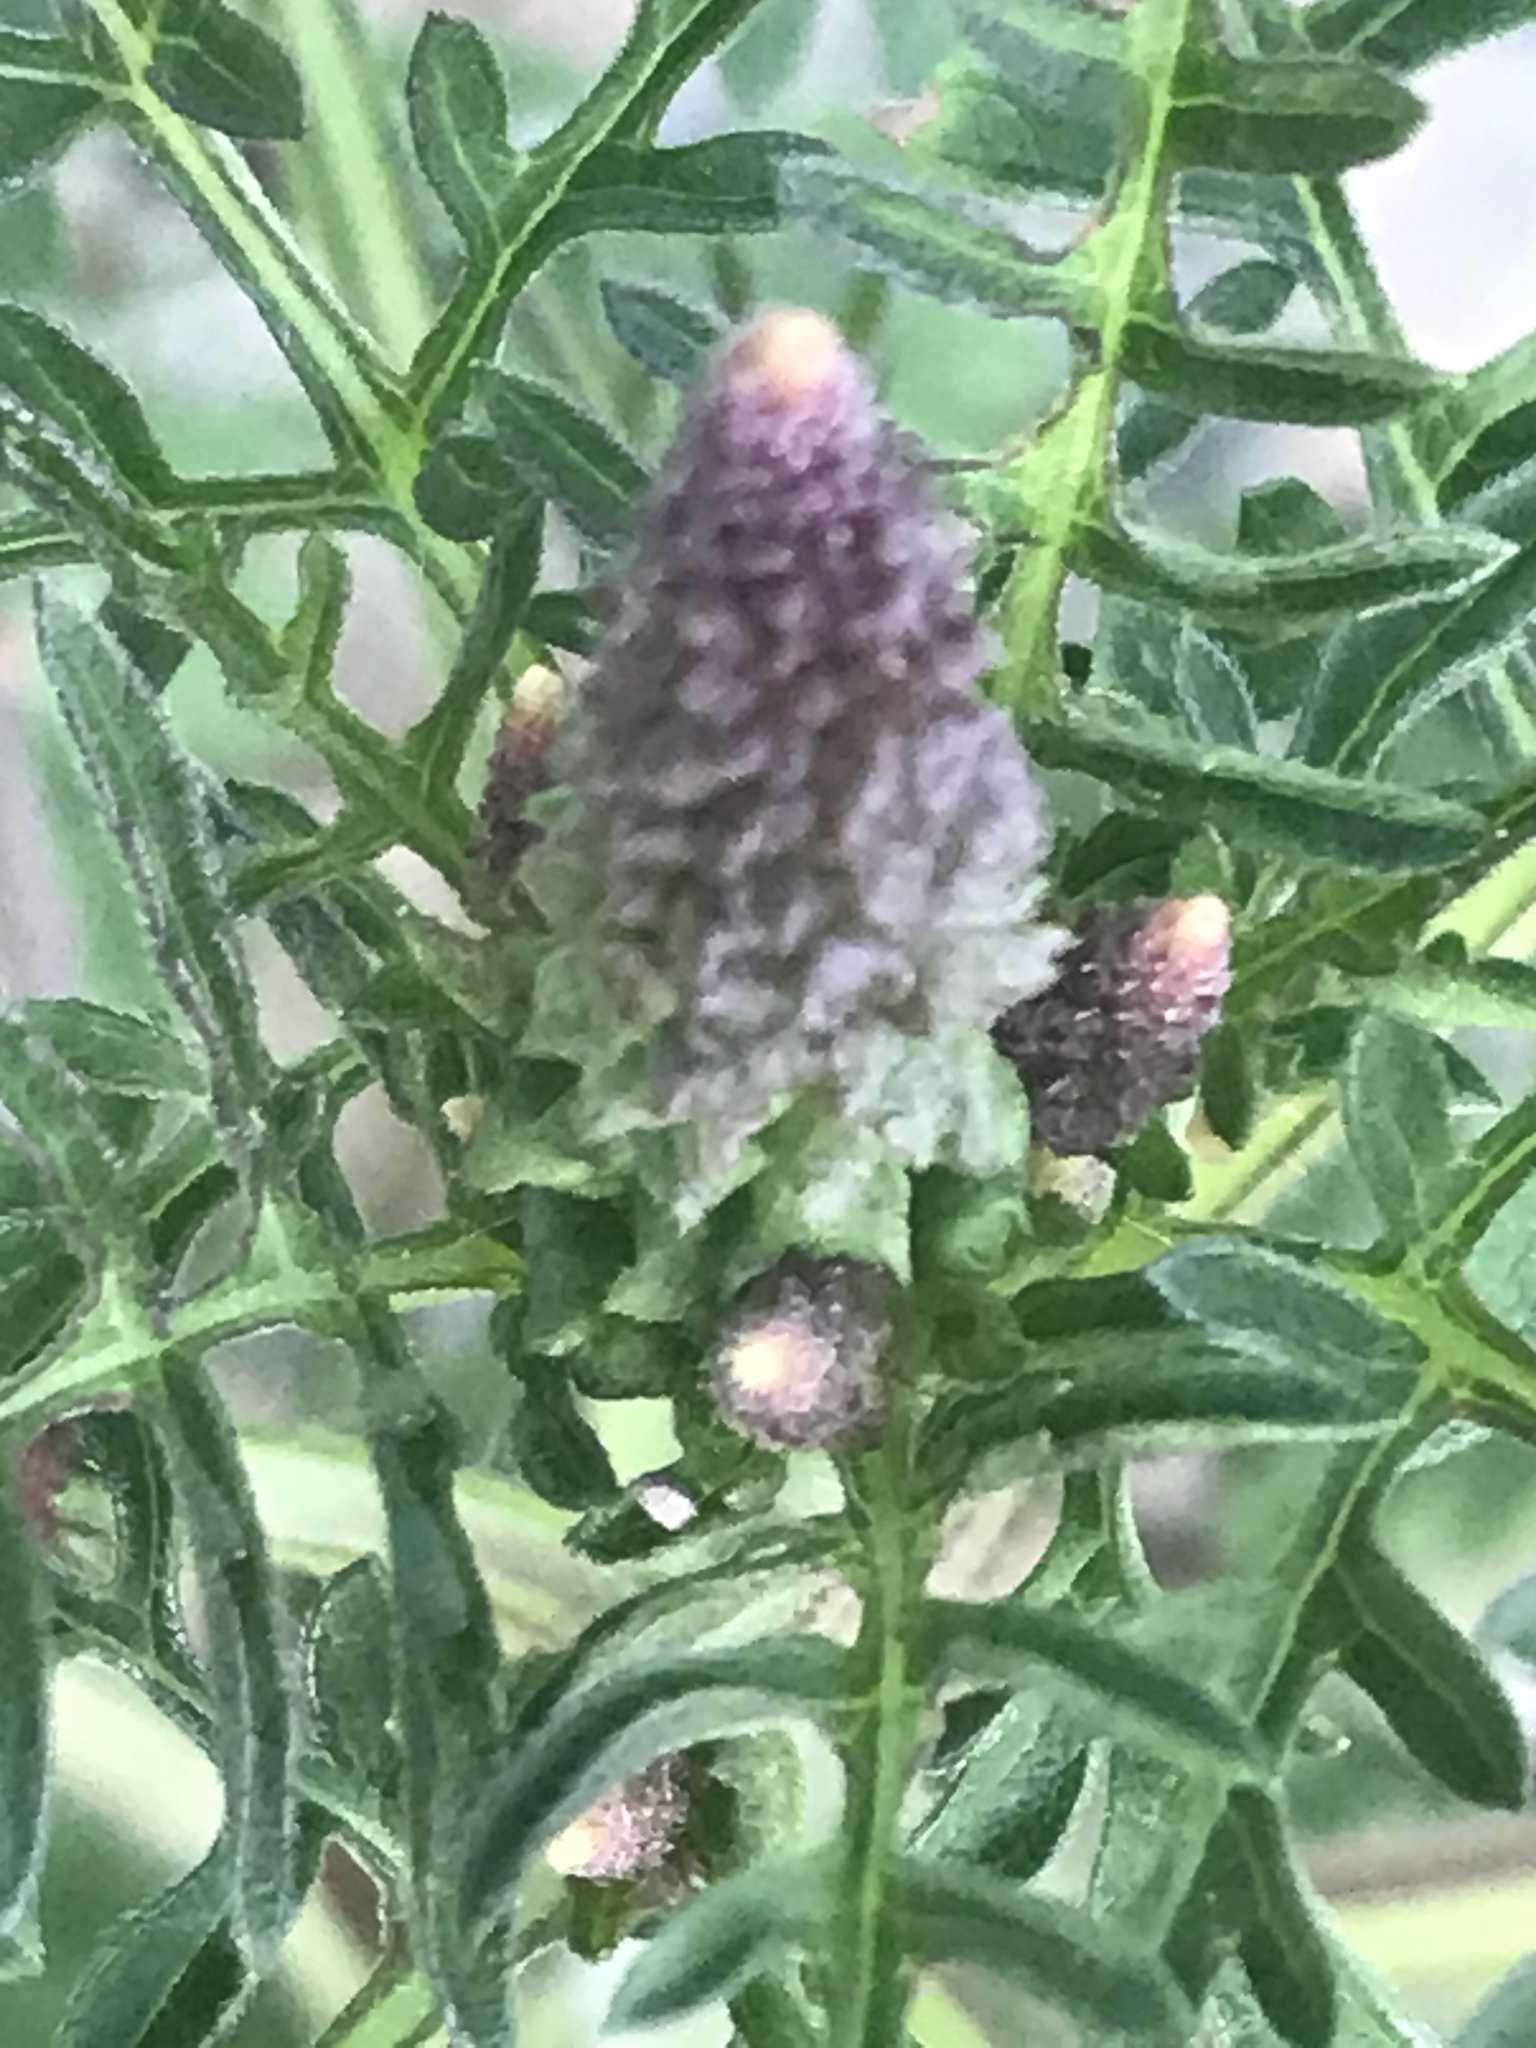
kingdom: Plantae
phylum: Tracheophyta
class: Magnoliopsida
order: Asterales
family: Asteraceae
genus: Ambrosia
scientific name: Ambrosia artemisiifolia
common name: Annual ragweed
